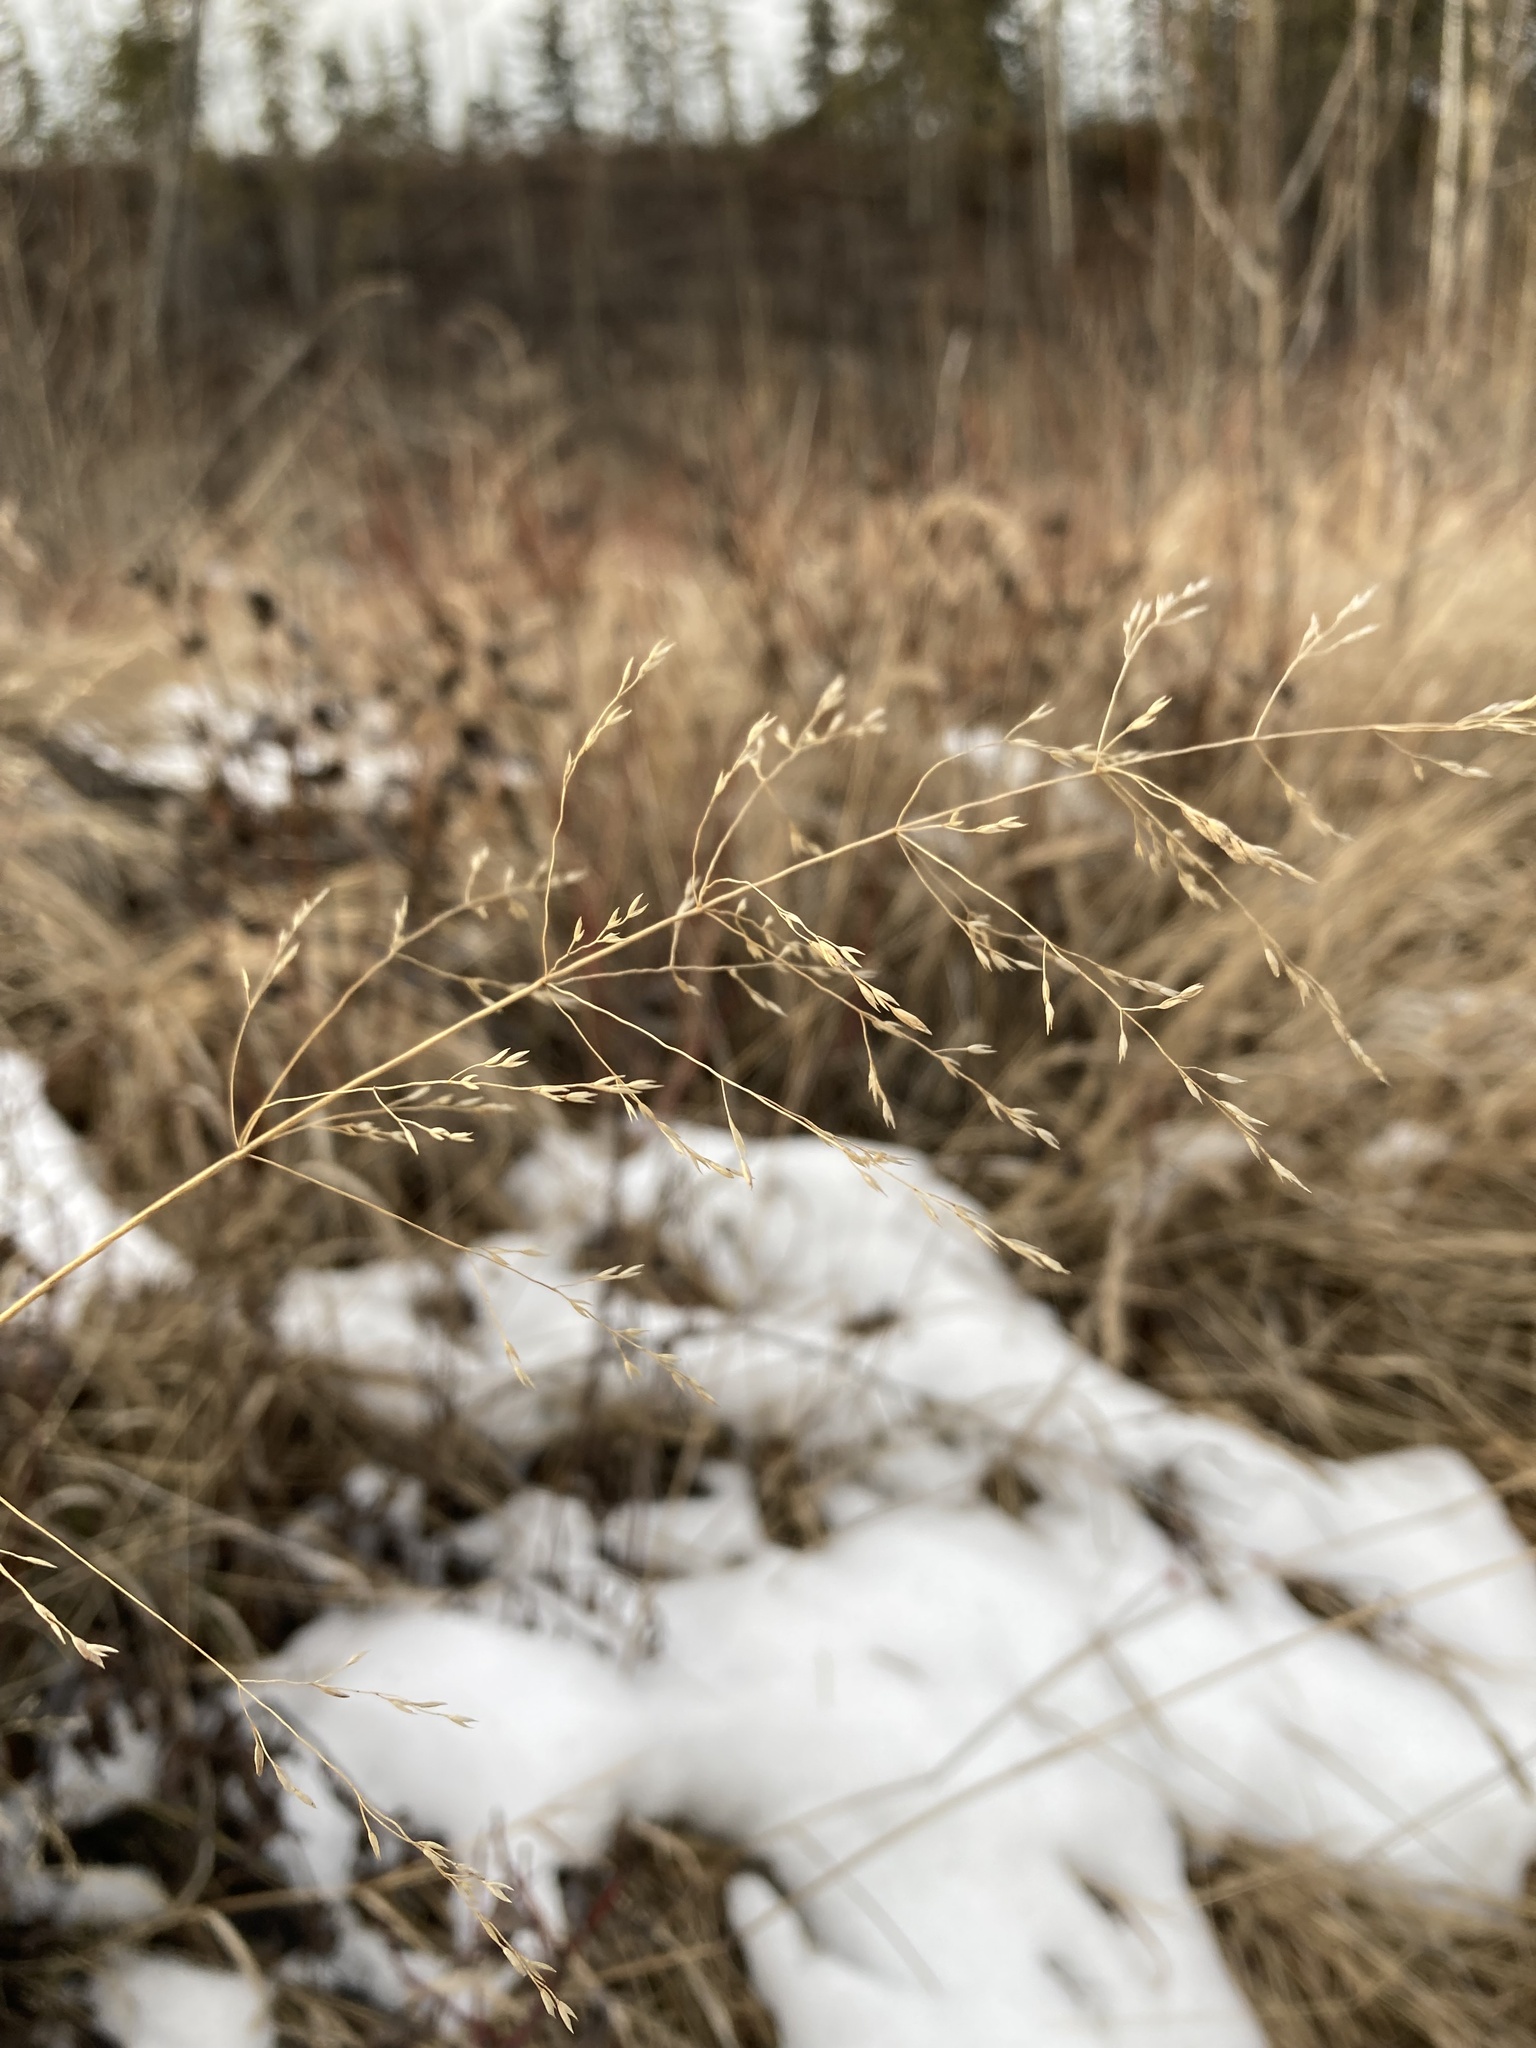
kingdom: Plantae
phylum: Tracheophyta
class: Liliopsida
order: Poales
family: Poaceae
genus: Poa
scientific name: Poa palustris
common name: Swamp meadow-grass
